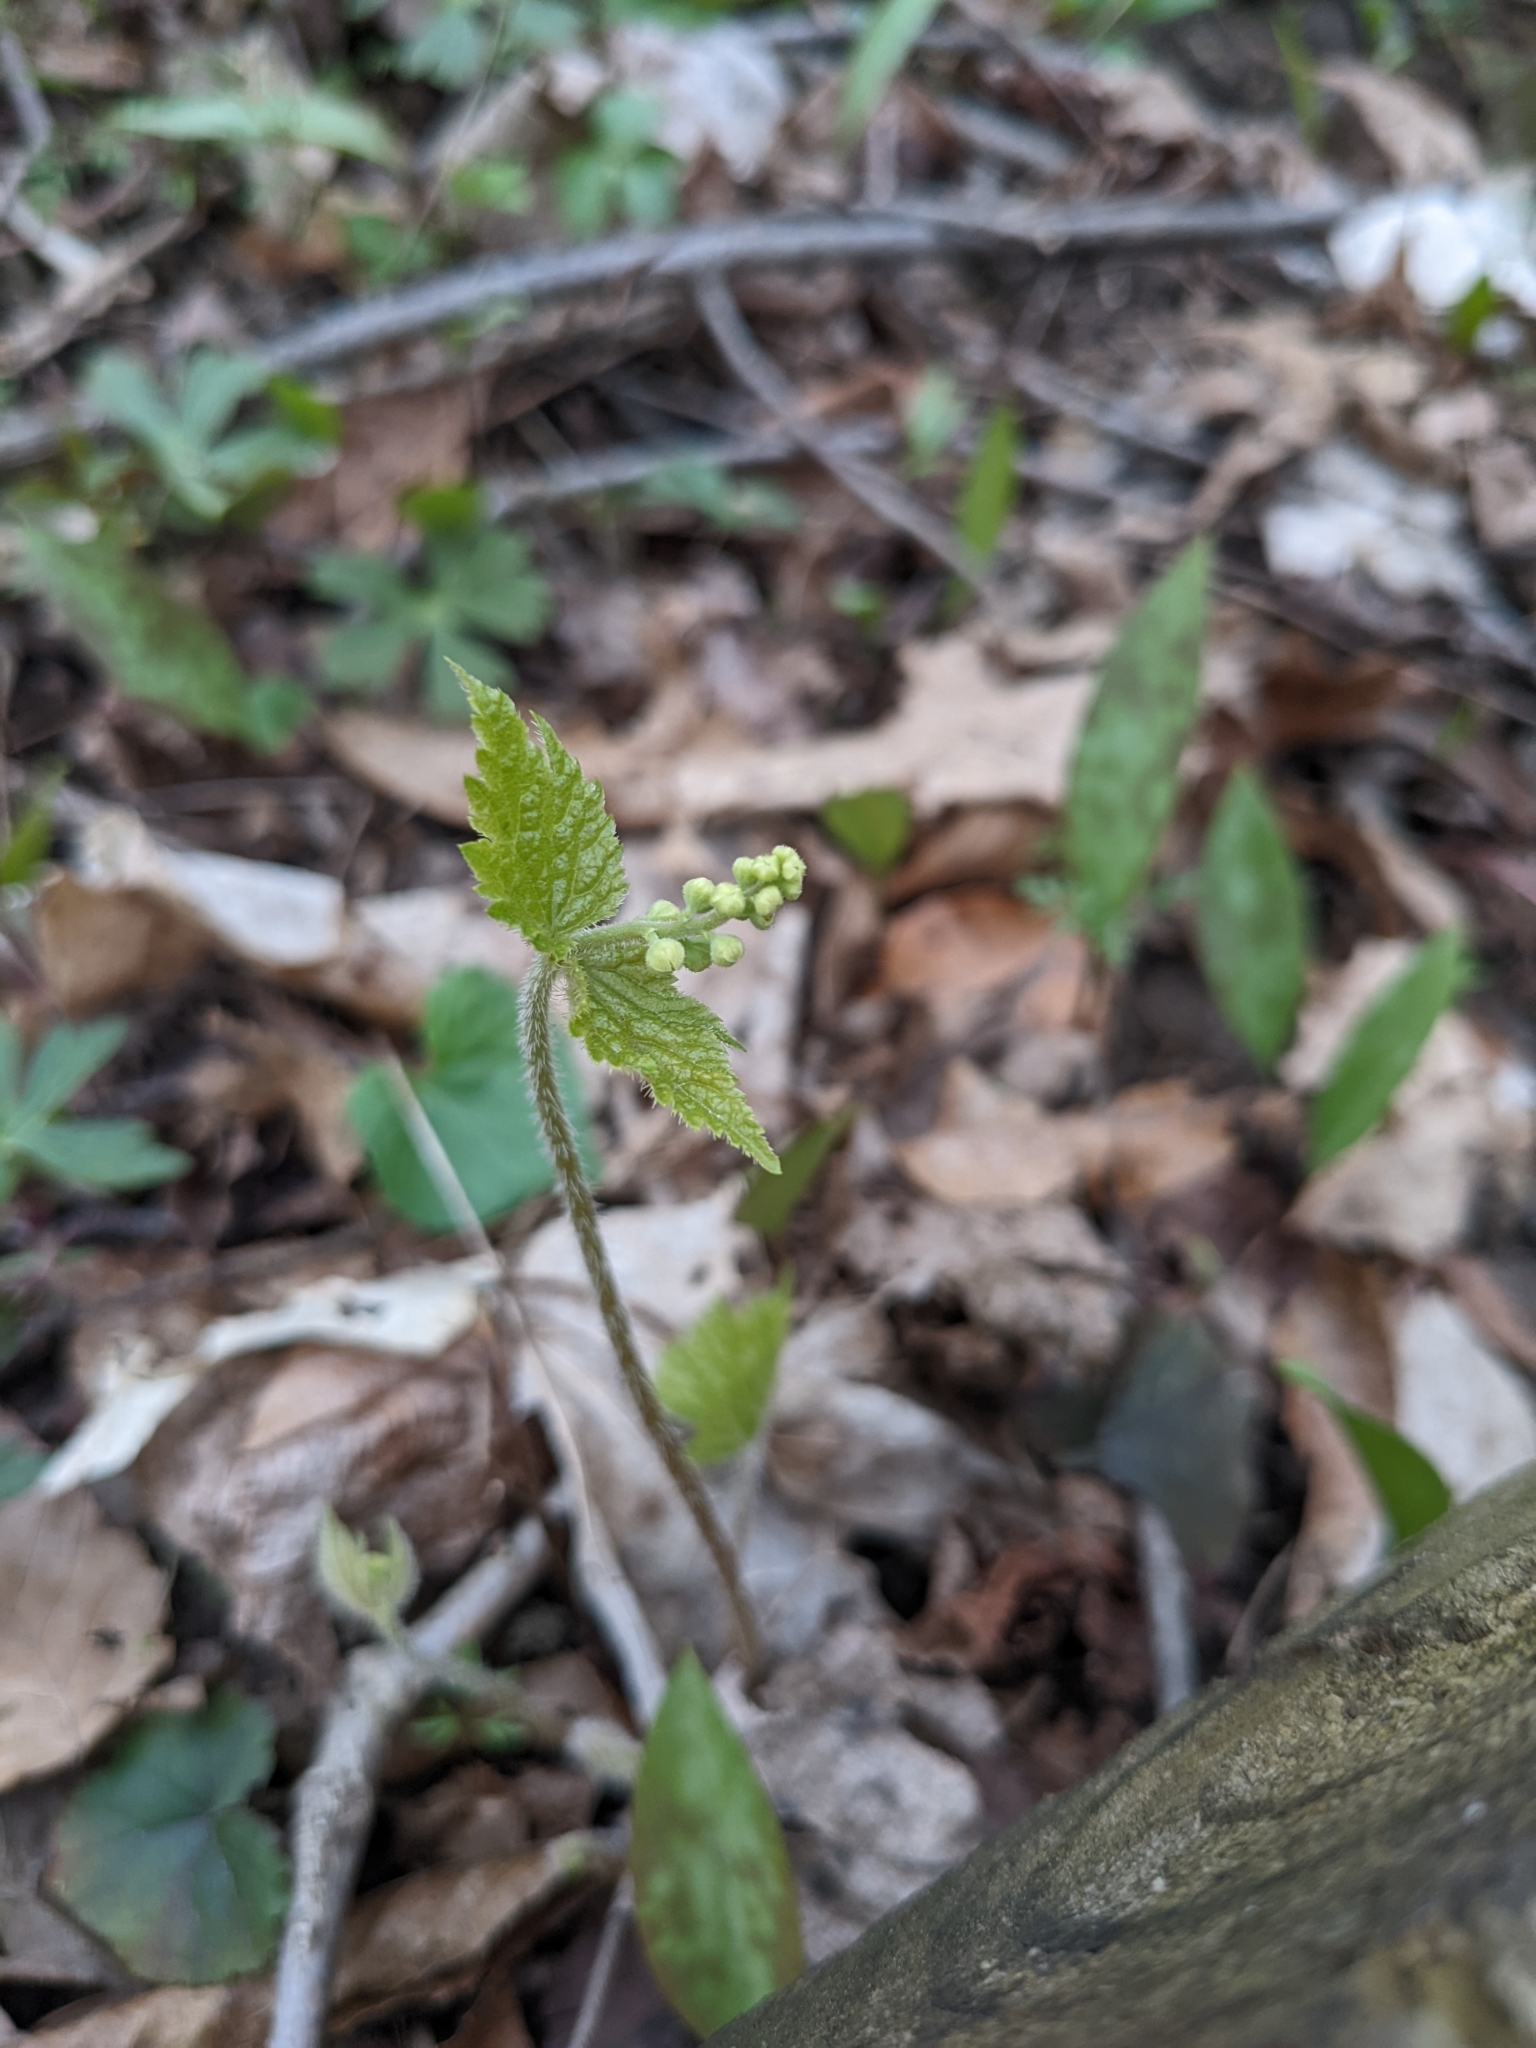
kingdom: Plantae
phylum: Tracheophyta
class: Magnoliopsida
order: Saxifragales
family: Saxifragaceae
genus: Mitella
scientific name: Mitella diphylla
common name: Coolwort
